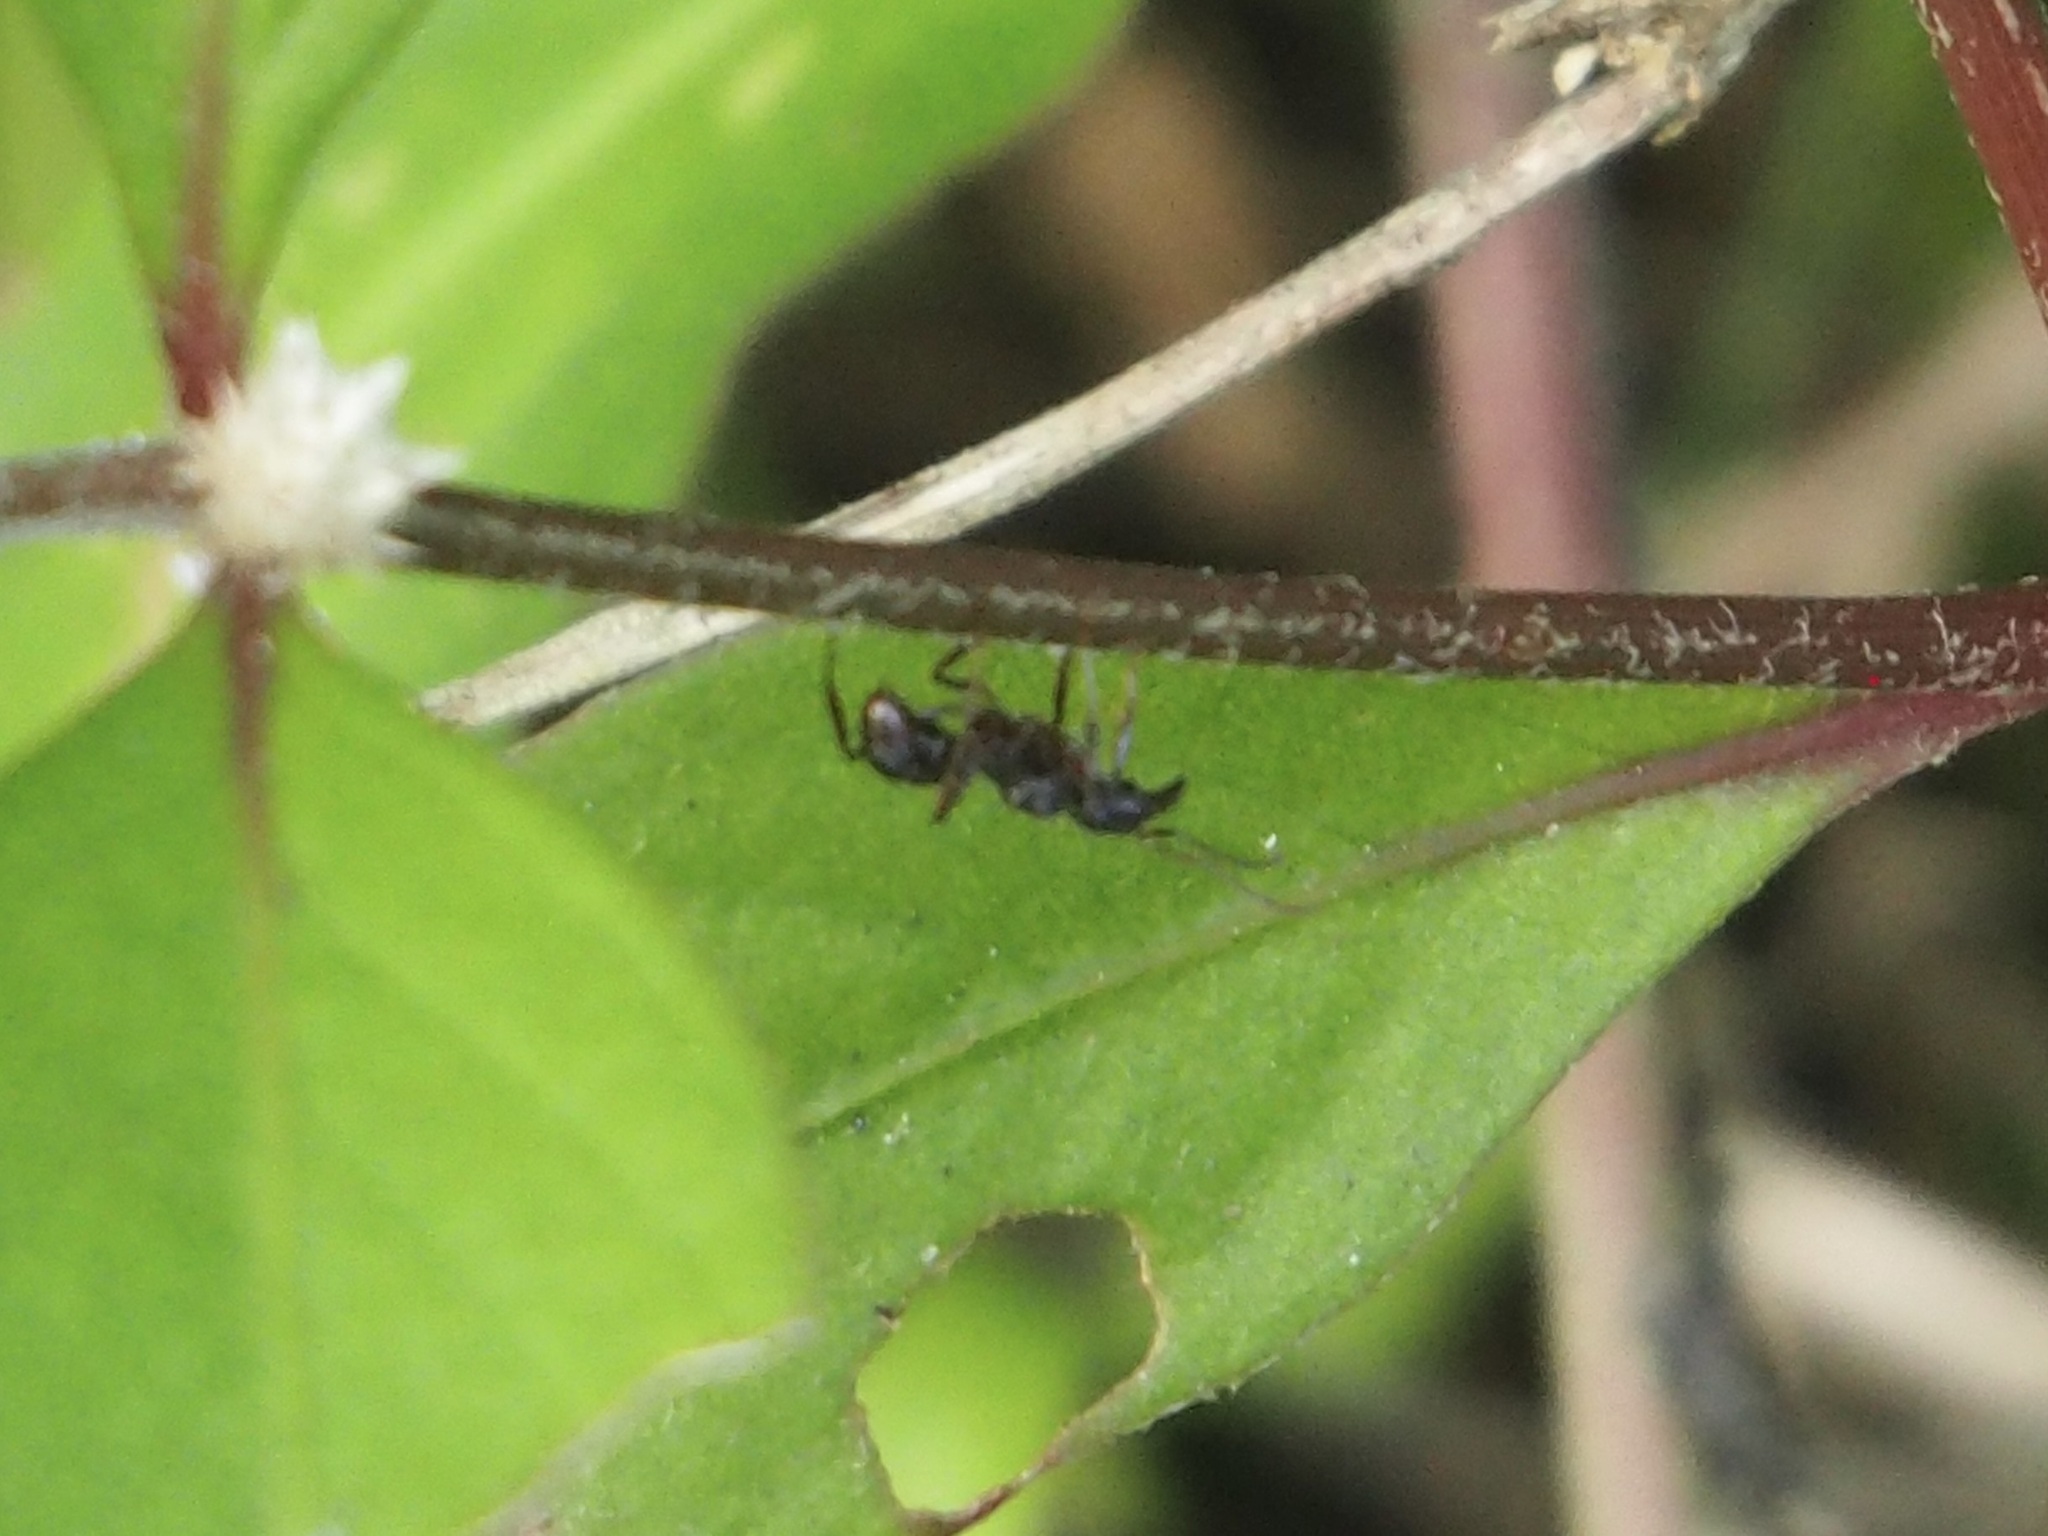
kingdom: Animalia
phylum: Arthropoda
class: Insecta
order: Hymenoptera
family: Formicidae
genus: Ectatomma
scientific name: Ectatomma
